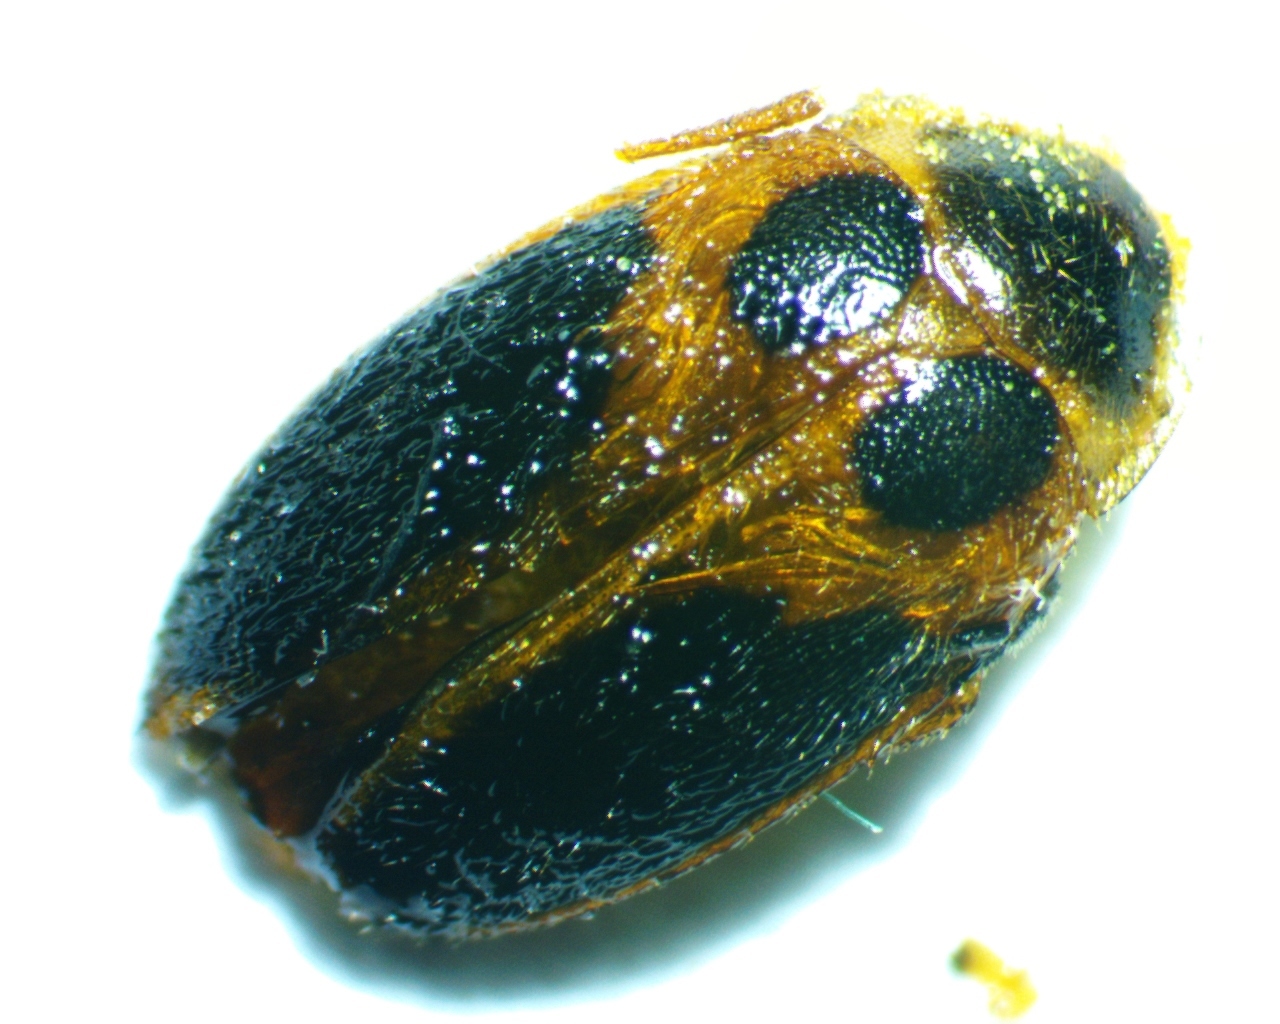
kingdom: Animalia
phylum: Arthropoda
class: Insecta
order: Coleoptera
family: Scirtidae
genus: Sacodes
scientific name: Sacodes pulchella
